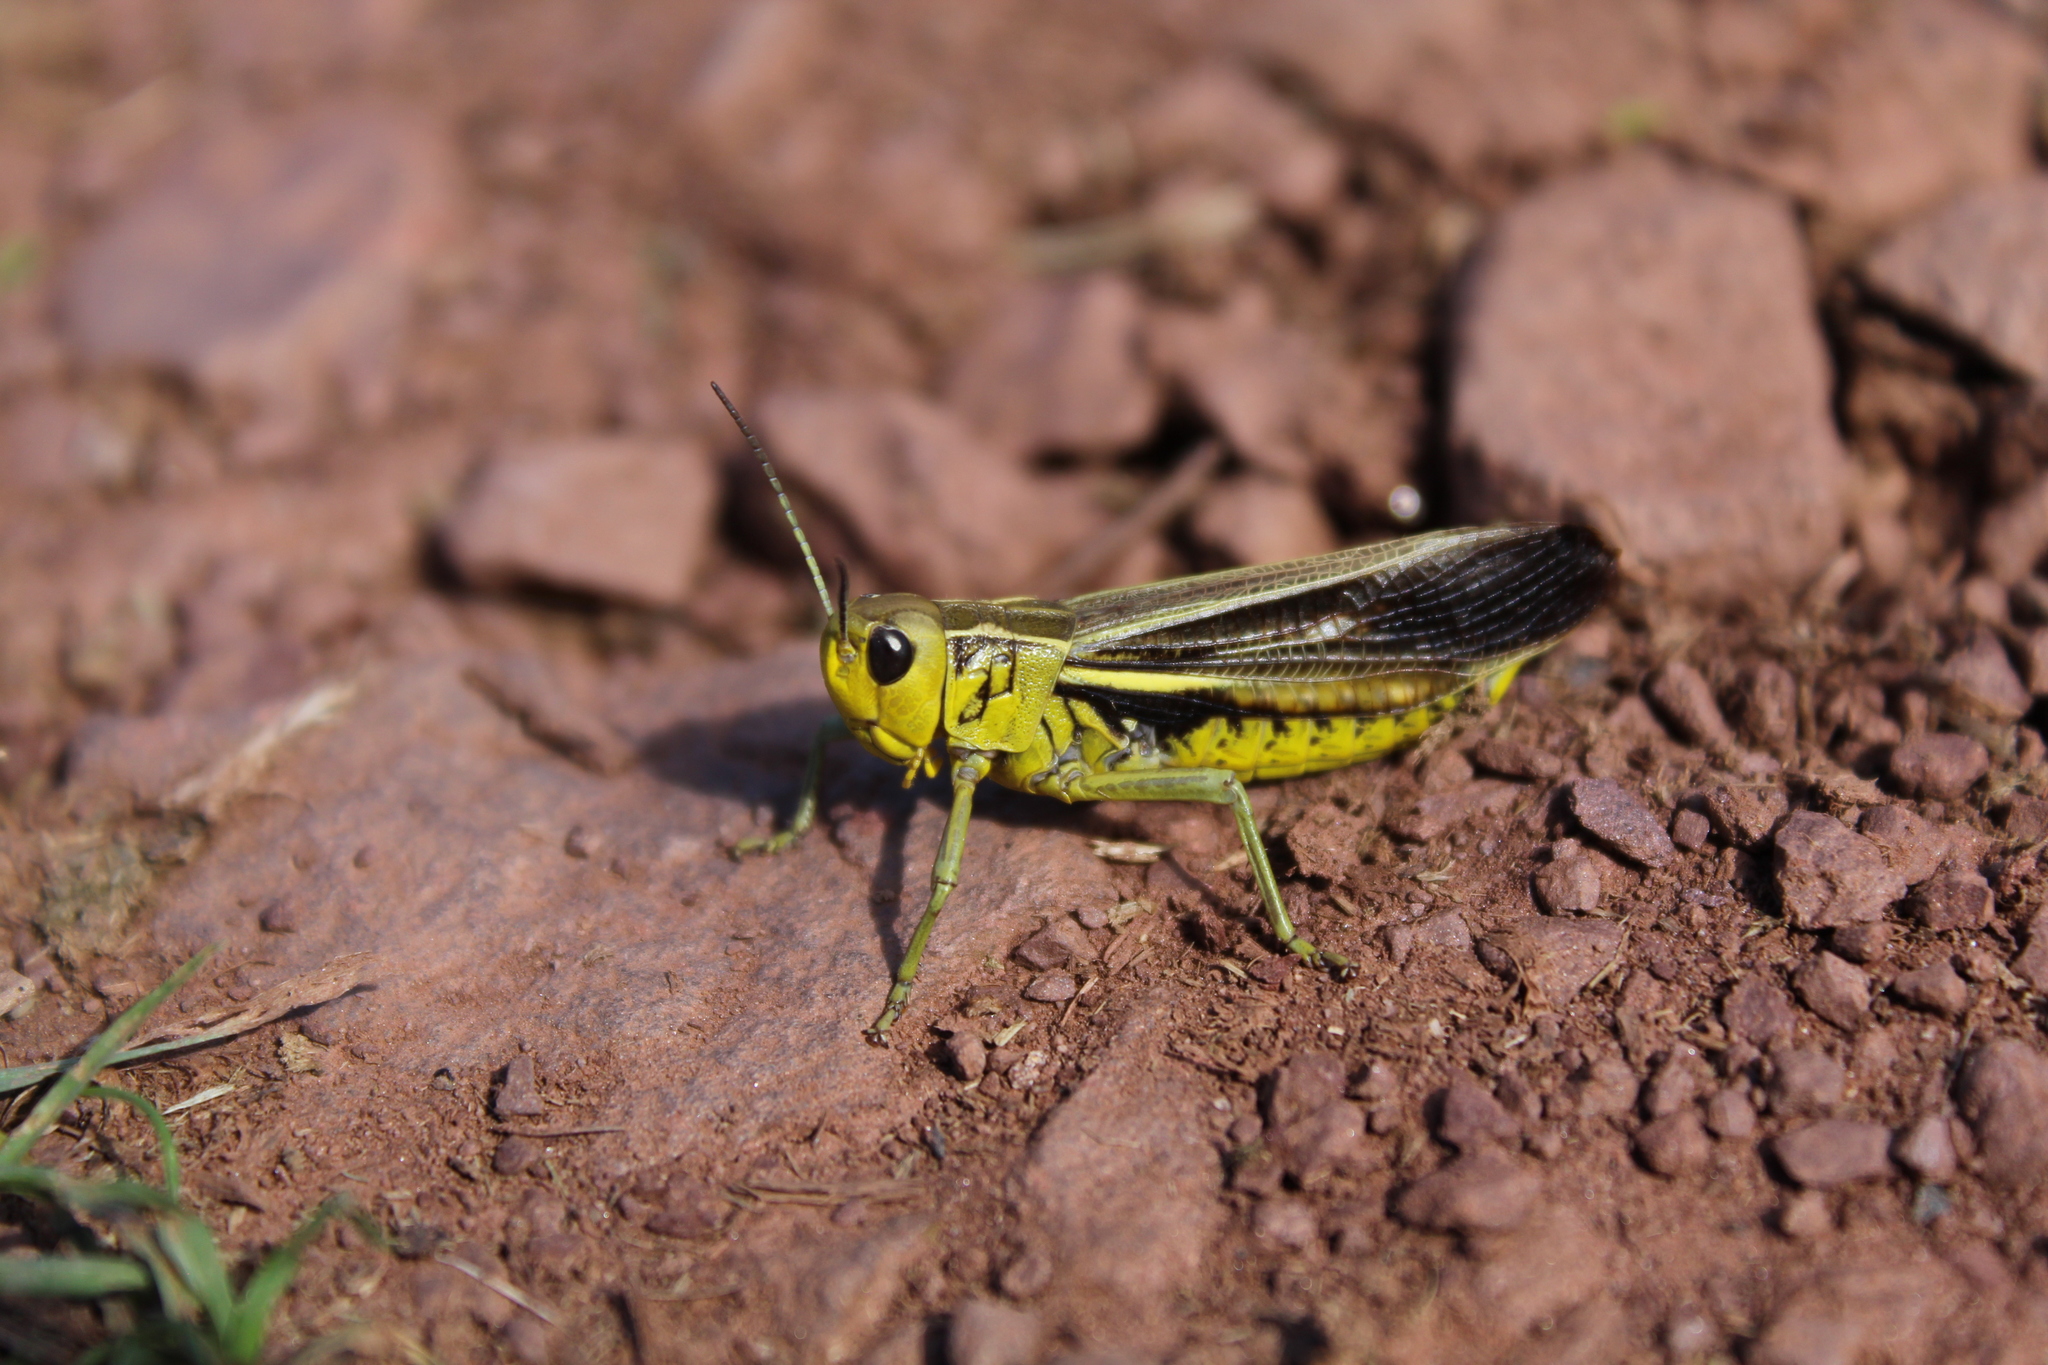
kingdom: Animalia
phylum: Arthropoda
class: Insecta
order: Orthoptera
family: Acrididae
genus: Arcyptera
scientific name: Arcyptera fusca
